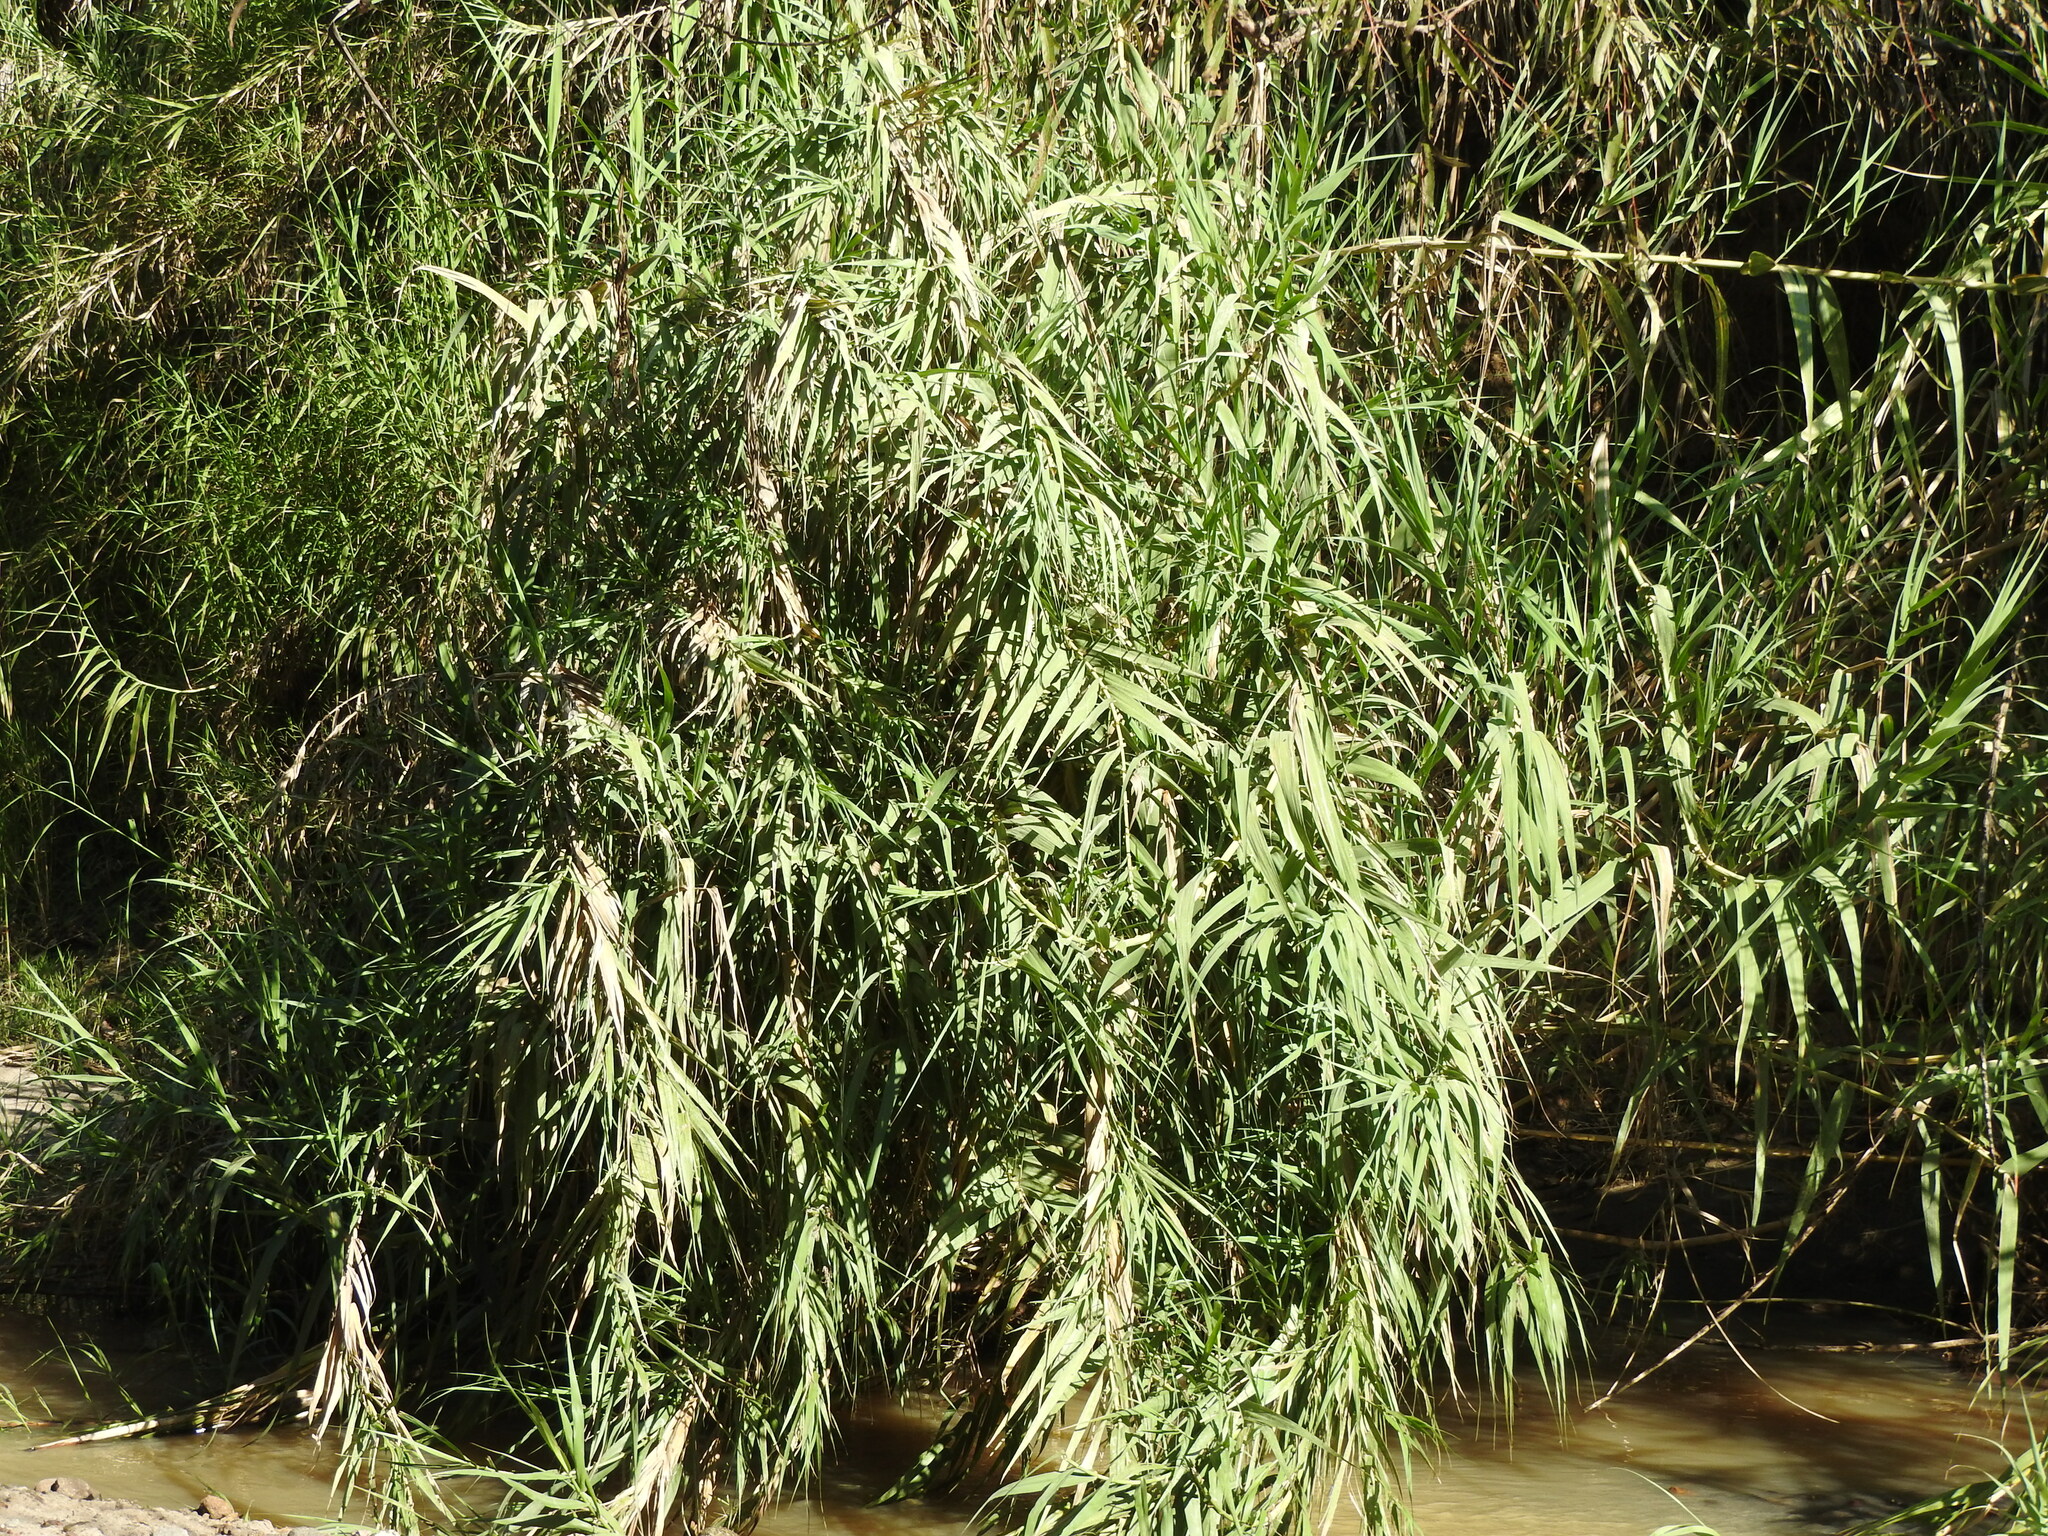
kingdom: Plantae
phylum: Tracheophyta
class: Liliopsida
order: Poales
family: Poaceae
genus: Arundo
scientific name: Arundo donax
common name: Giant reed
